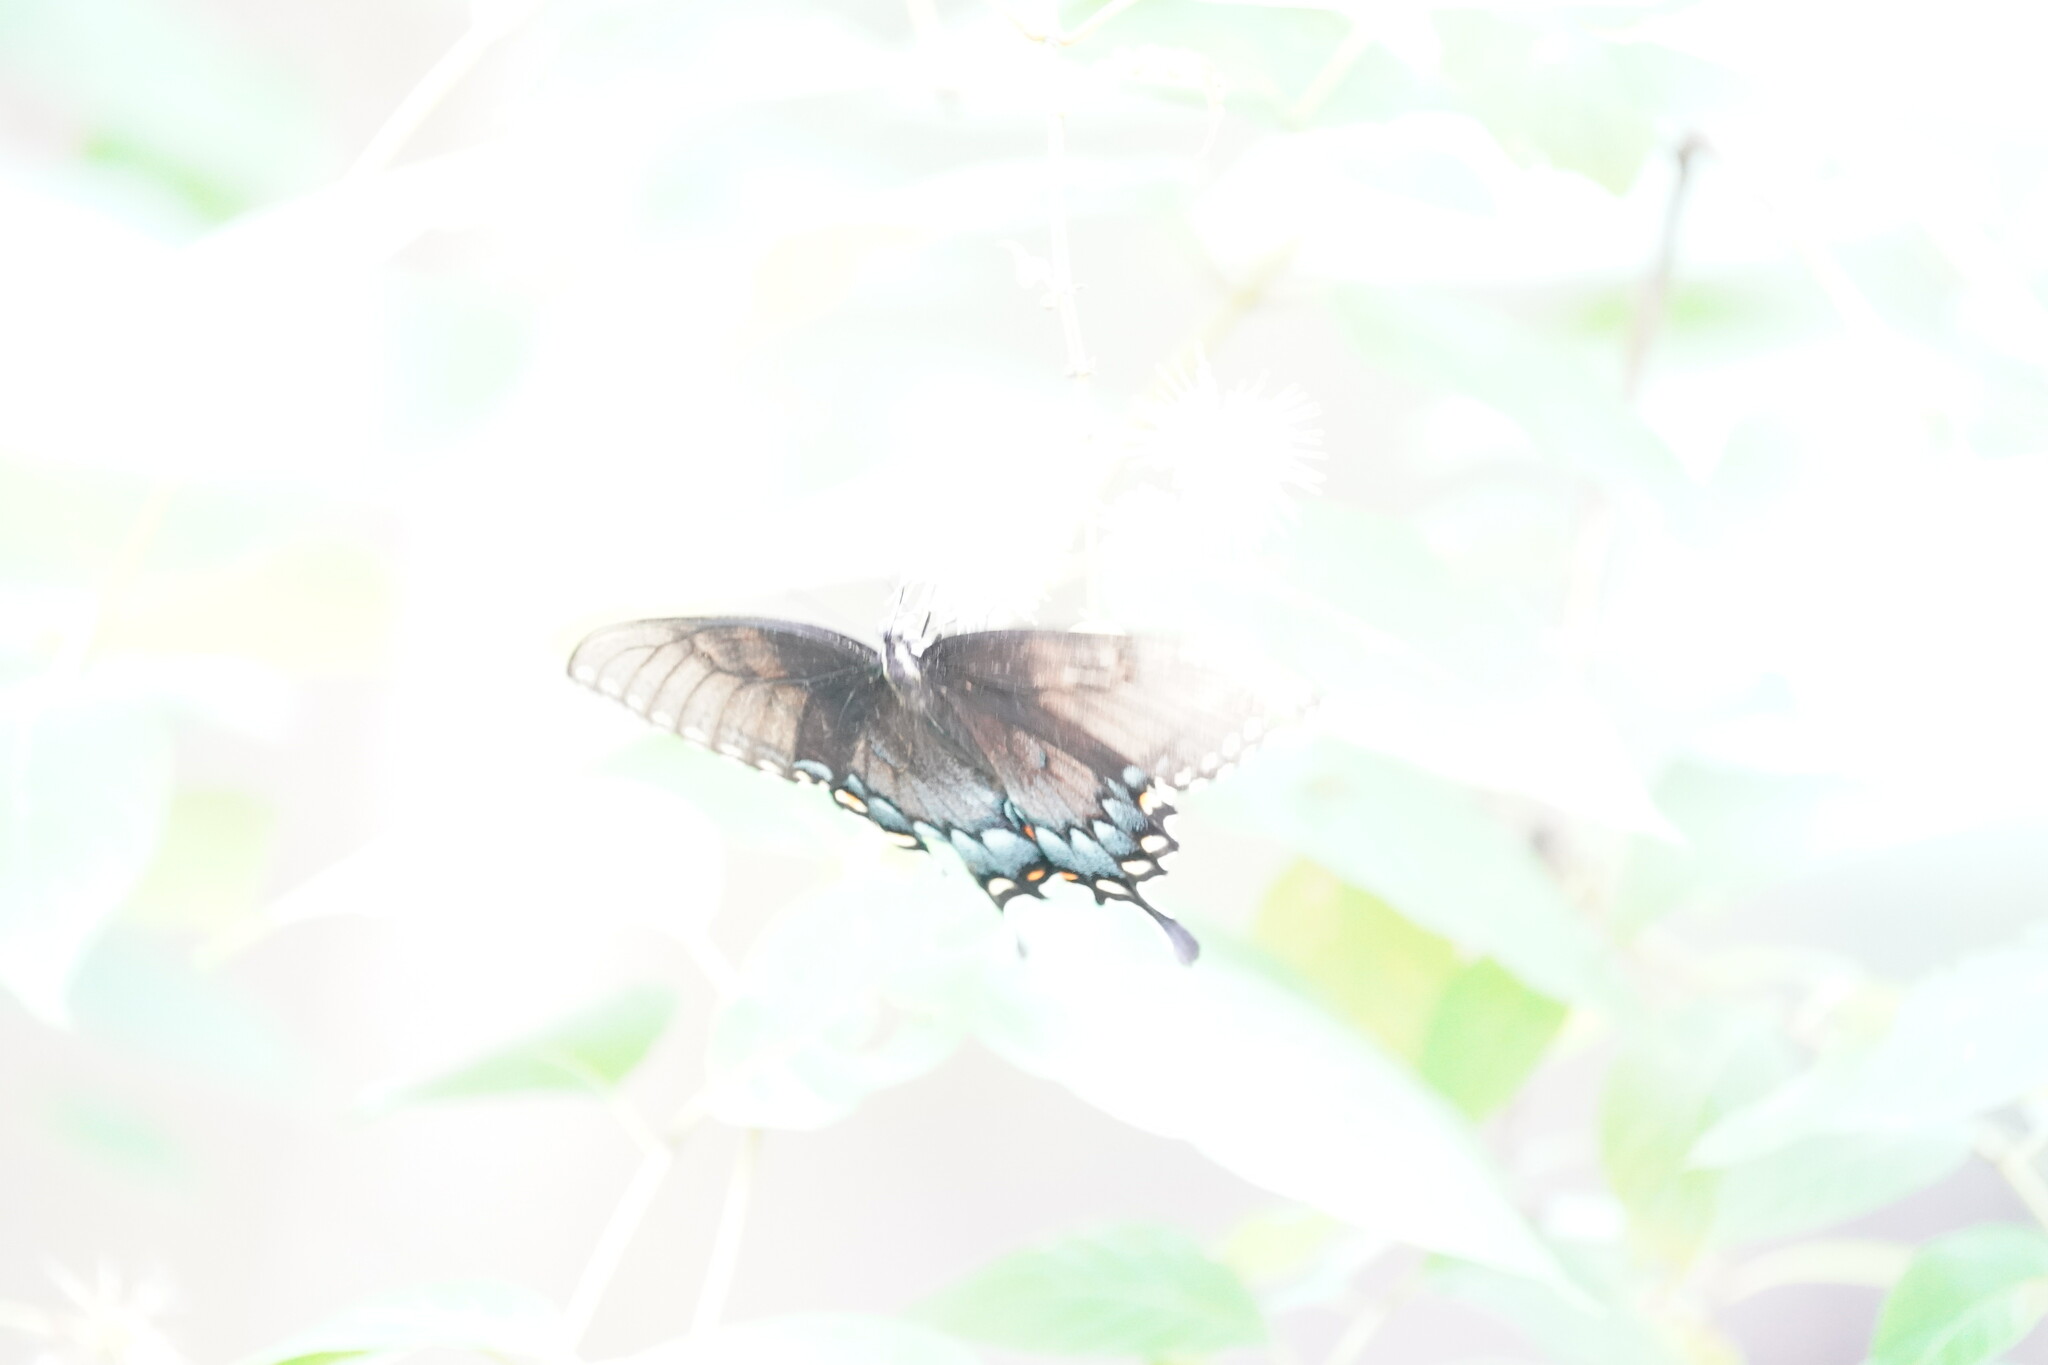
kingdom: Animalia
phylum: Arthropoda
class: Insecta
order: Lepidoptera
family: Papilionidae
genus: Papilio
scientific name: Papilio glaucus
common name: Tiger swallowtail
